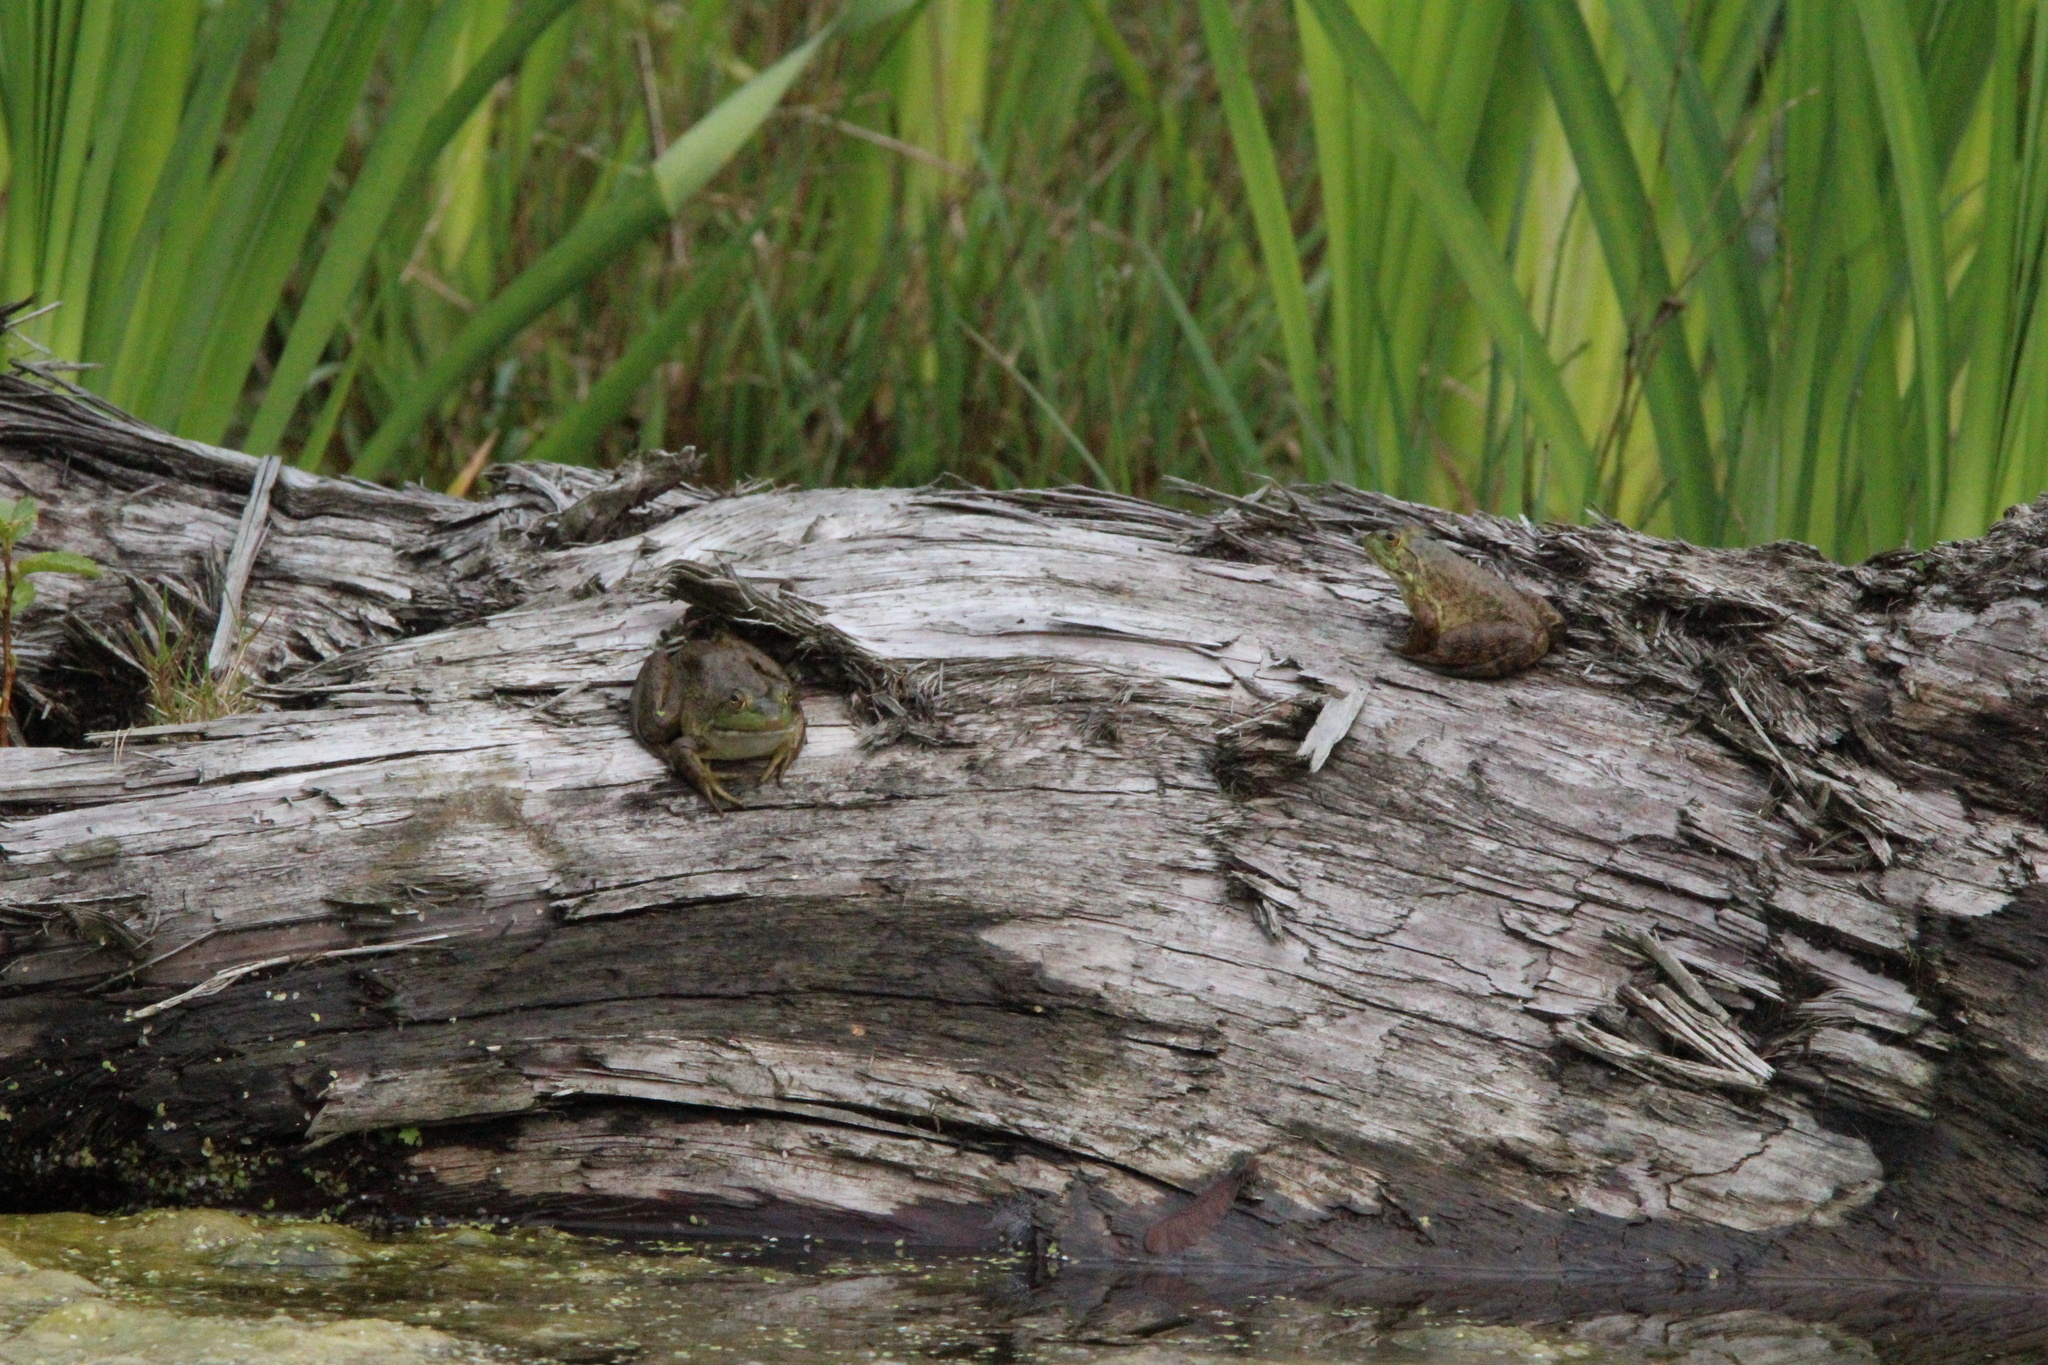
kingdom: Animalia
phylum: Chordata
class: Amphibia
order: Anura
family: Ranidae
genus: Lithobates
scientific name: Lithobates catesbeianus
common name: American bullfrog
